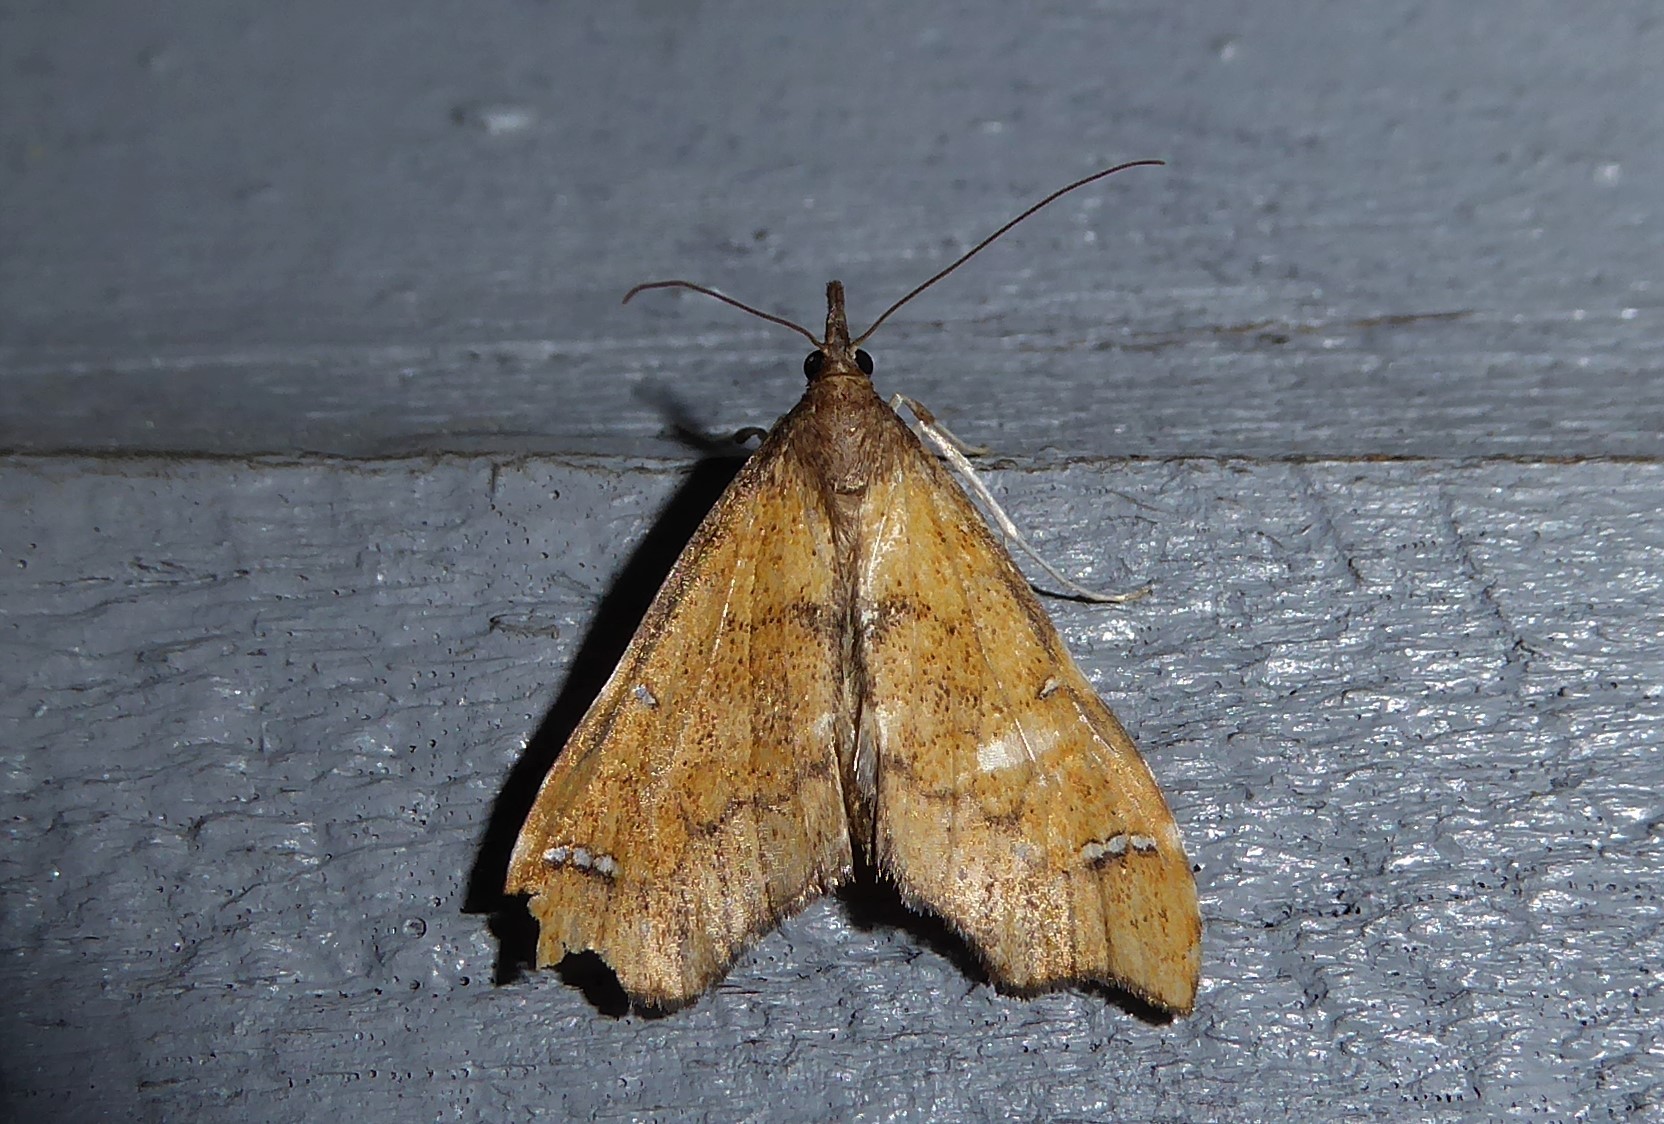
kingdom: Animalia
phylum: Arthropoda
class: Insecta
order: Lepidoptera
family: Crambidae
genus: Deana
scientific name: Deana hybreasalis
